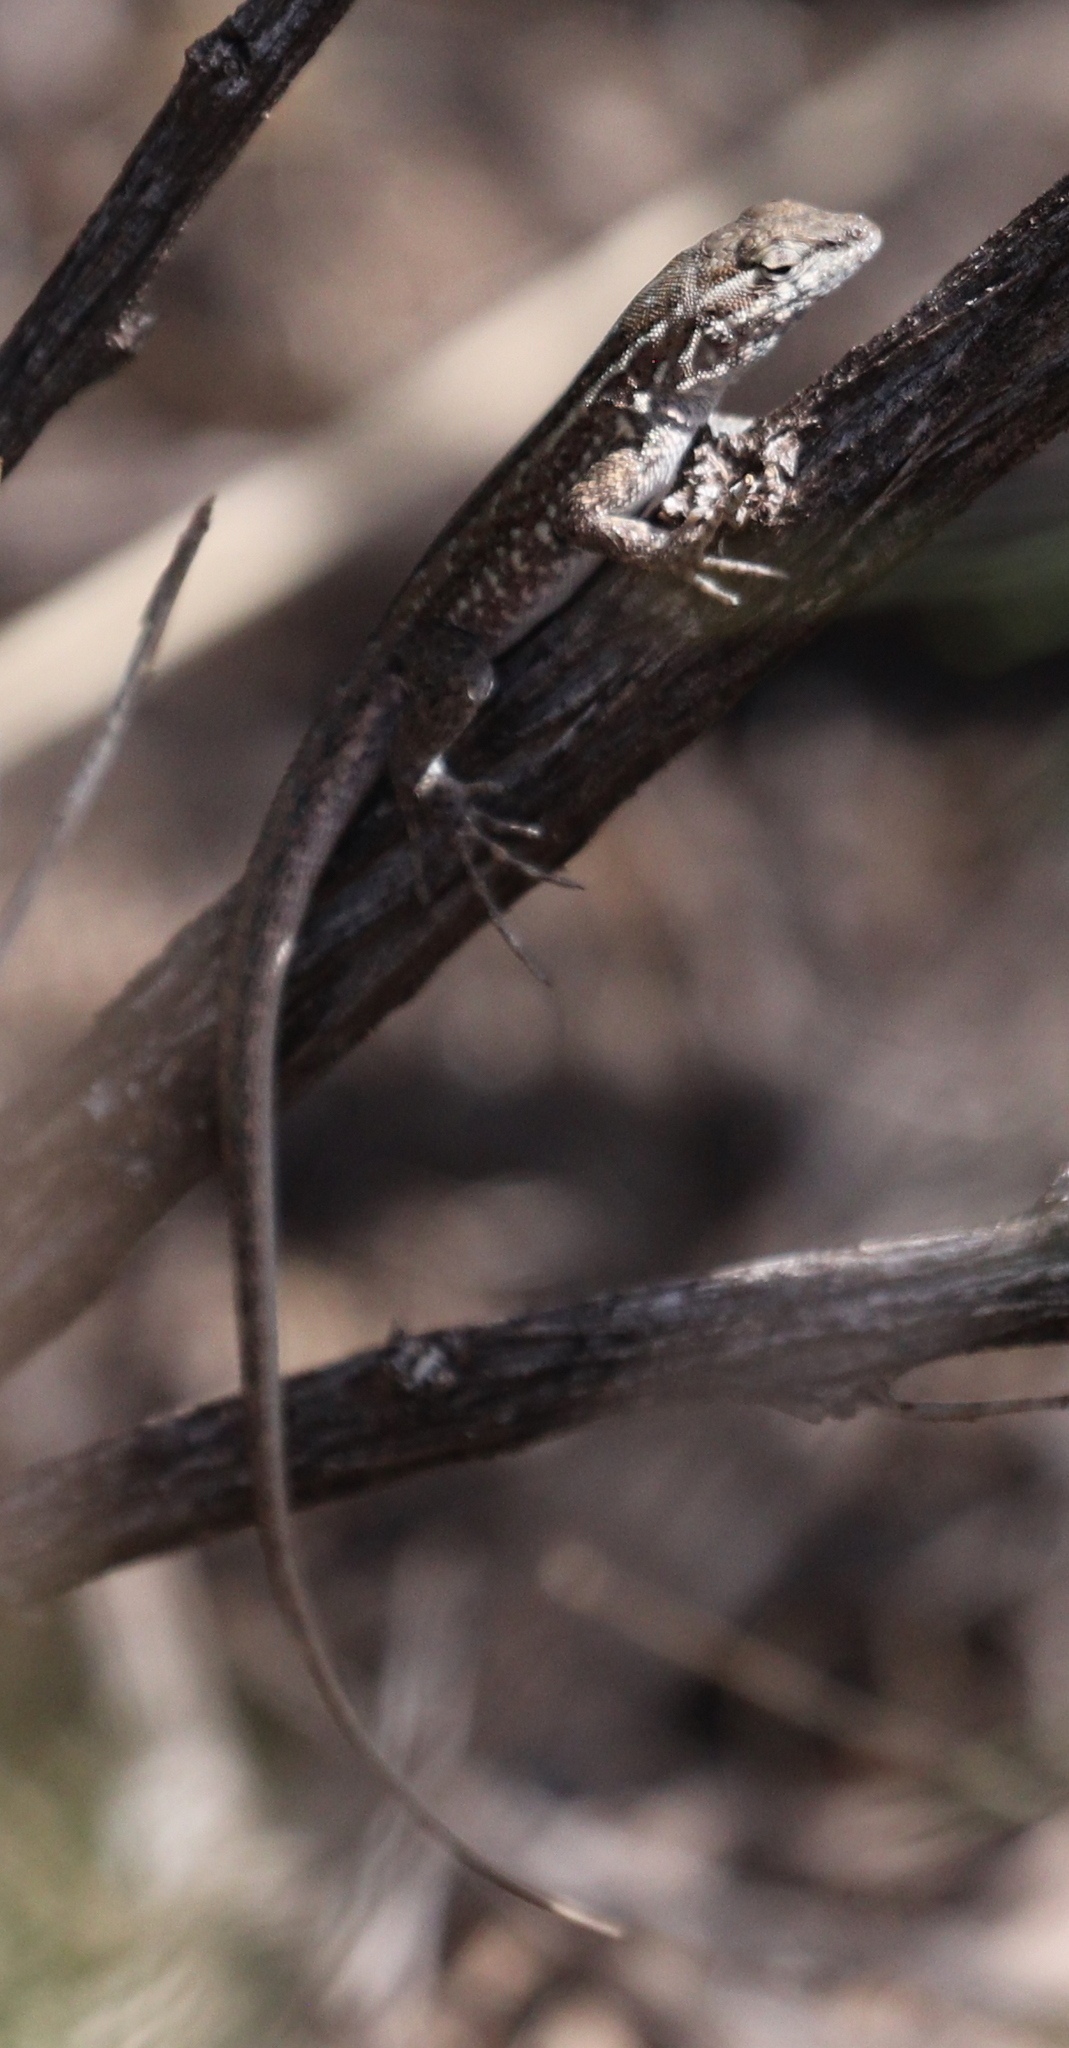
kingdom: Animalia
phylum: Chordata
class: Squamata
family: Phrynosomatidae
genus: Uta
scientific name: Uta stansburiana
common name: Side-blotched lizard
